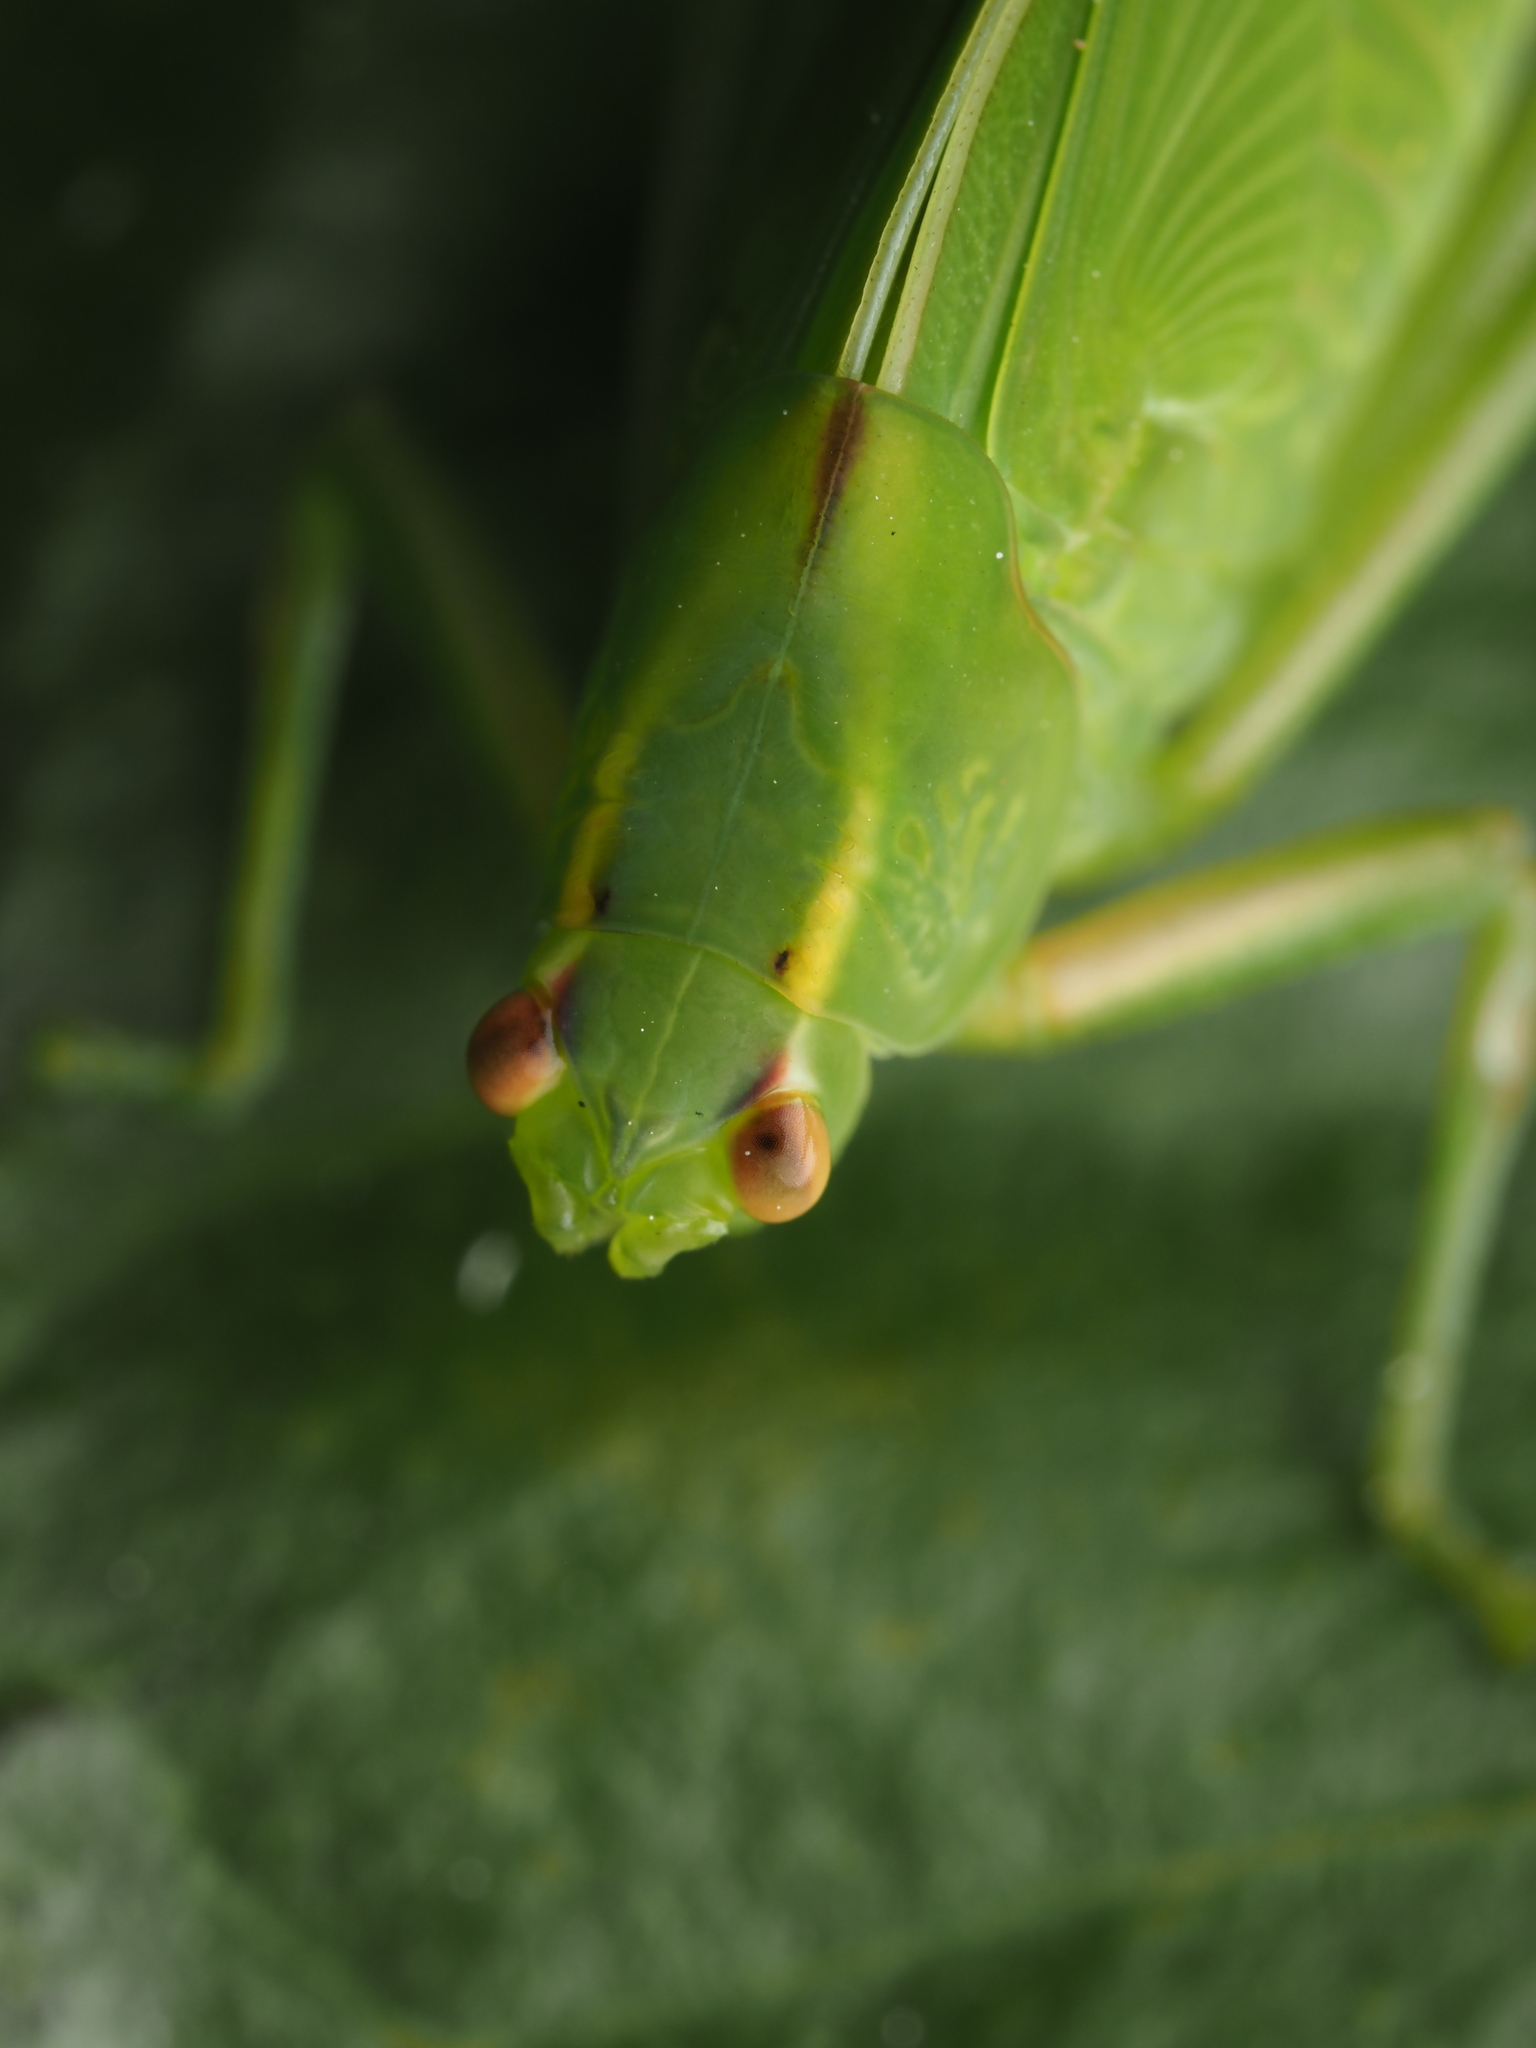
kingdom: Animalia
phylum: Arthropoda
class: Insecta
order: Orthoptera
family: Tettigoniidae
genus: Caedicia
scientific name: Caedicia simplex
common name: Common garden katydid
